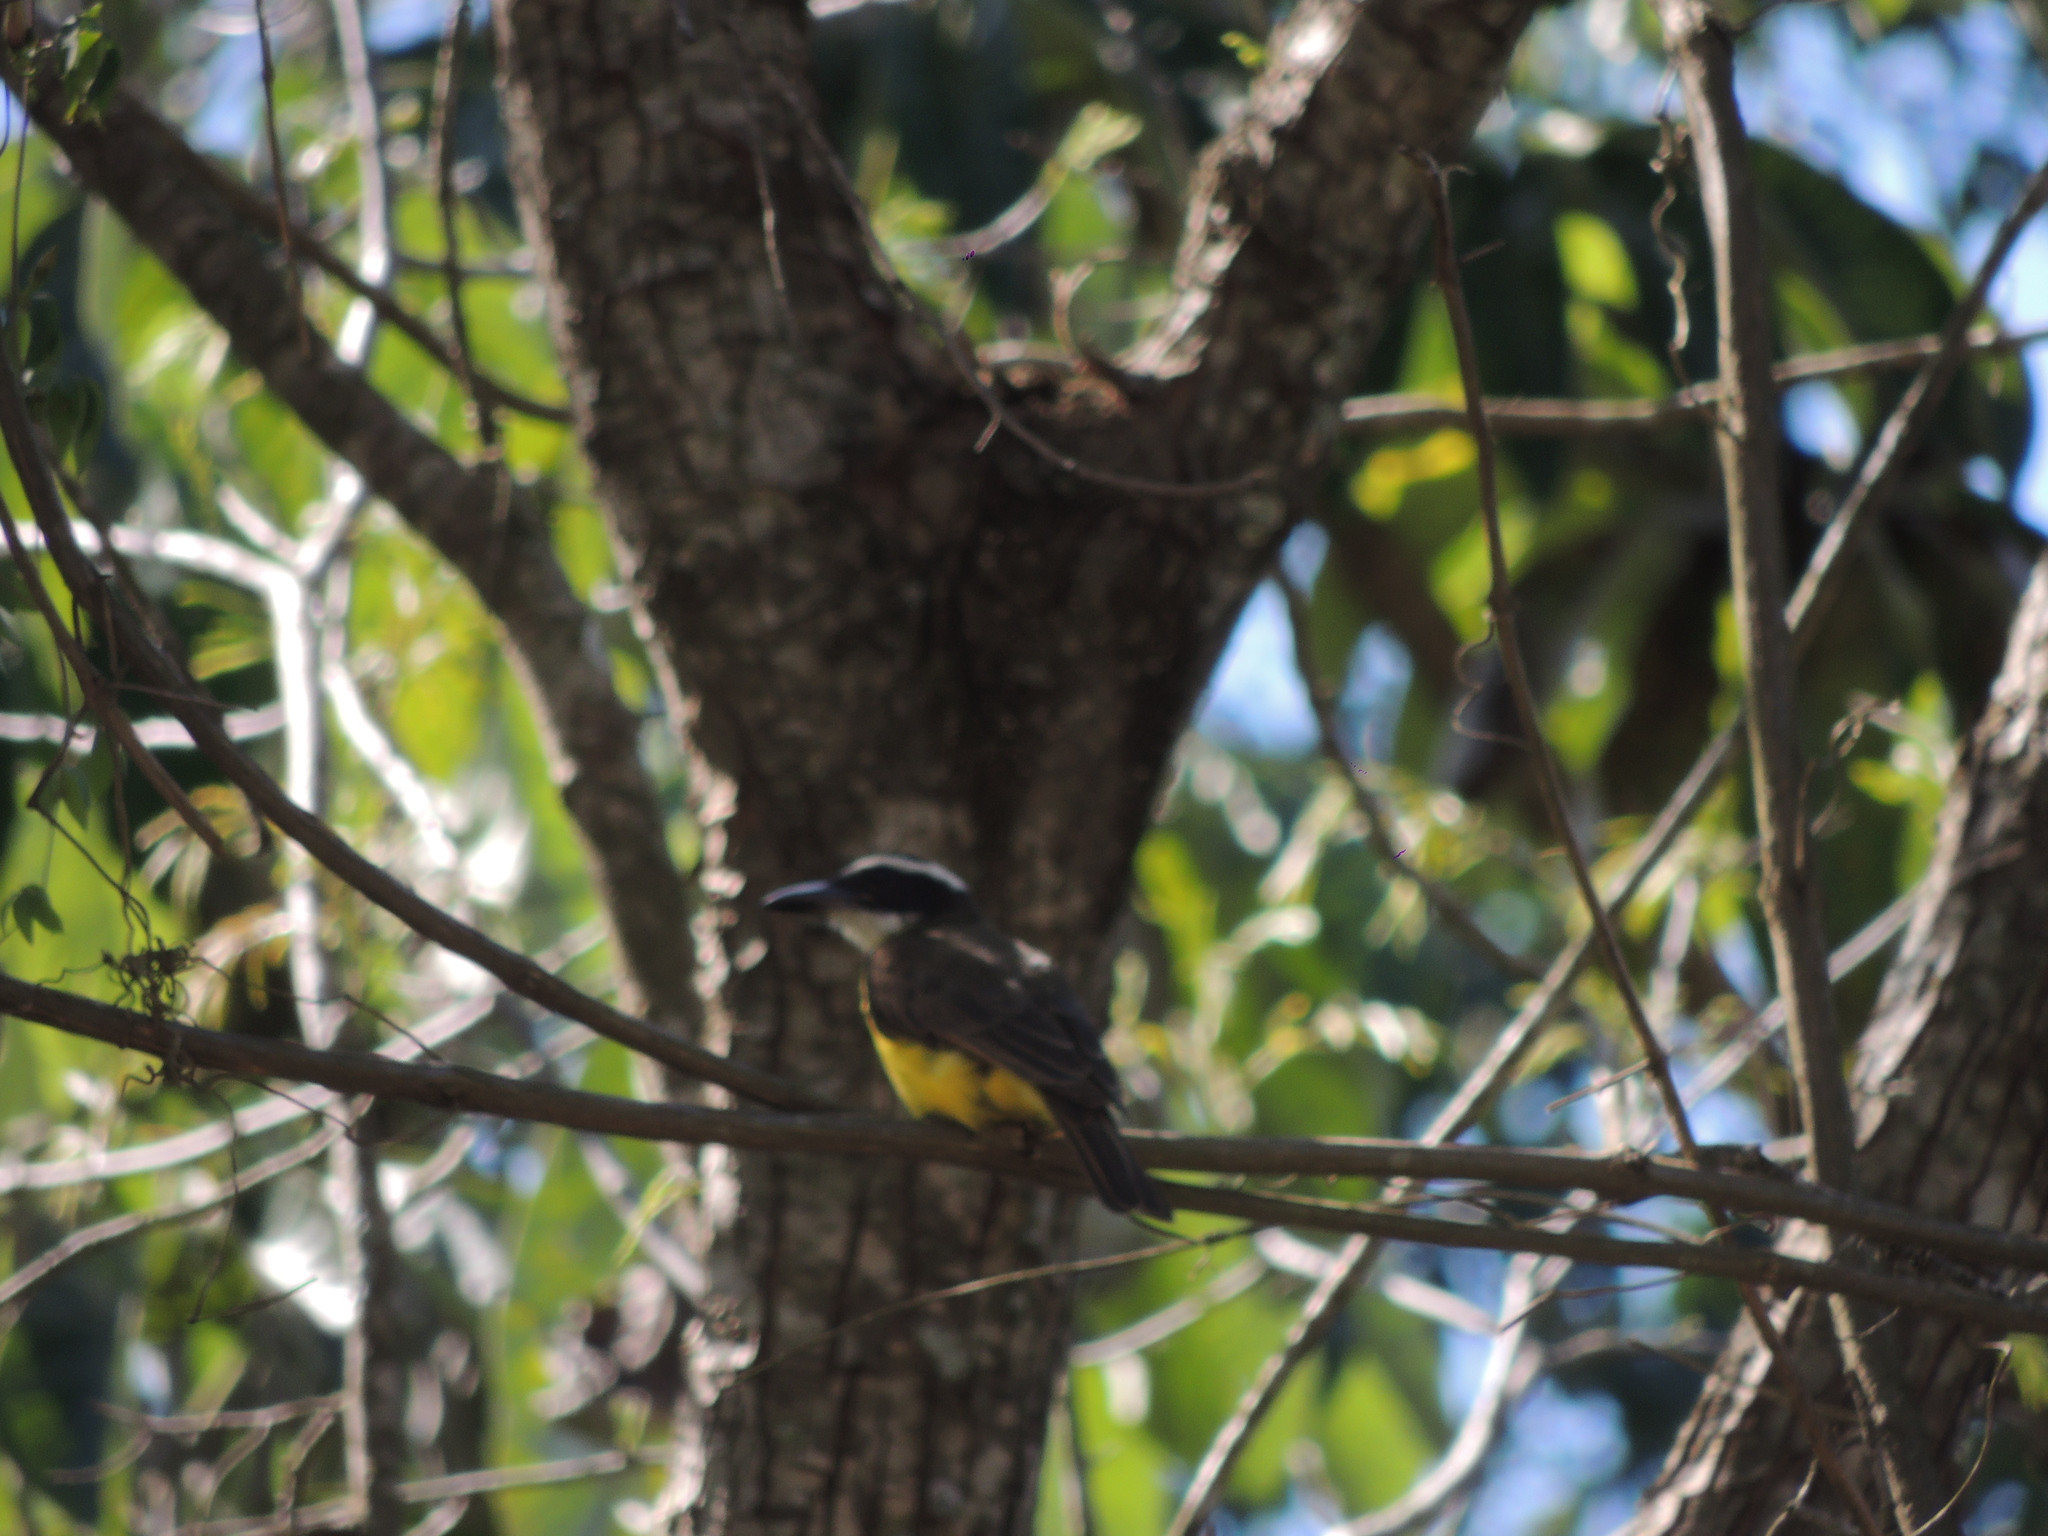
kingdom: Animalia
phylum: Chordata
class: Aves
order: Passeriformes
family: Tyrannidae
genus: Megarynchus
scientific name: Megarynchus pitangua
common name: Boat-billed flycatcher
